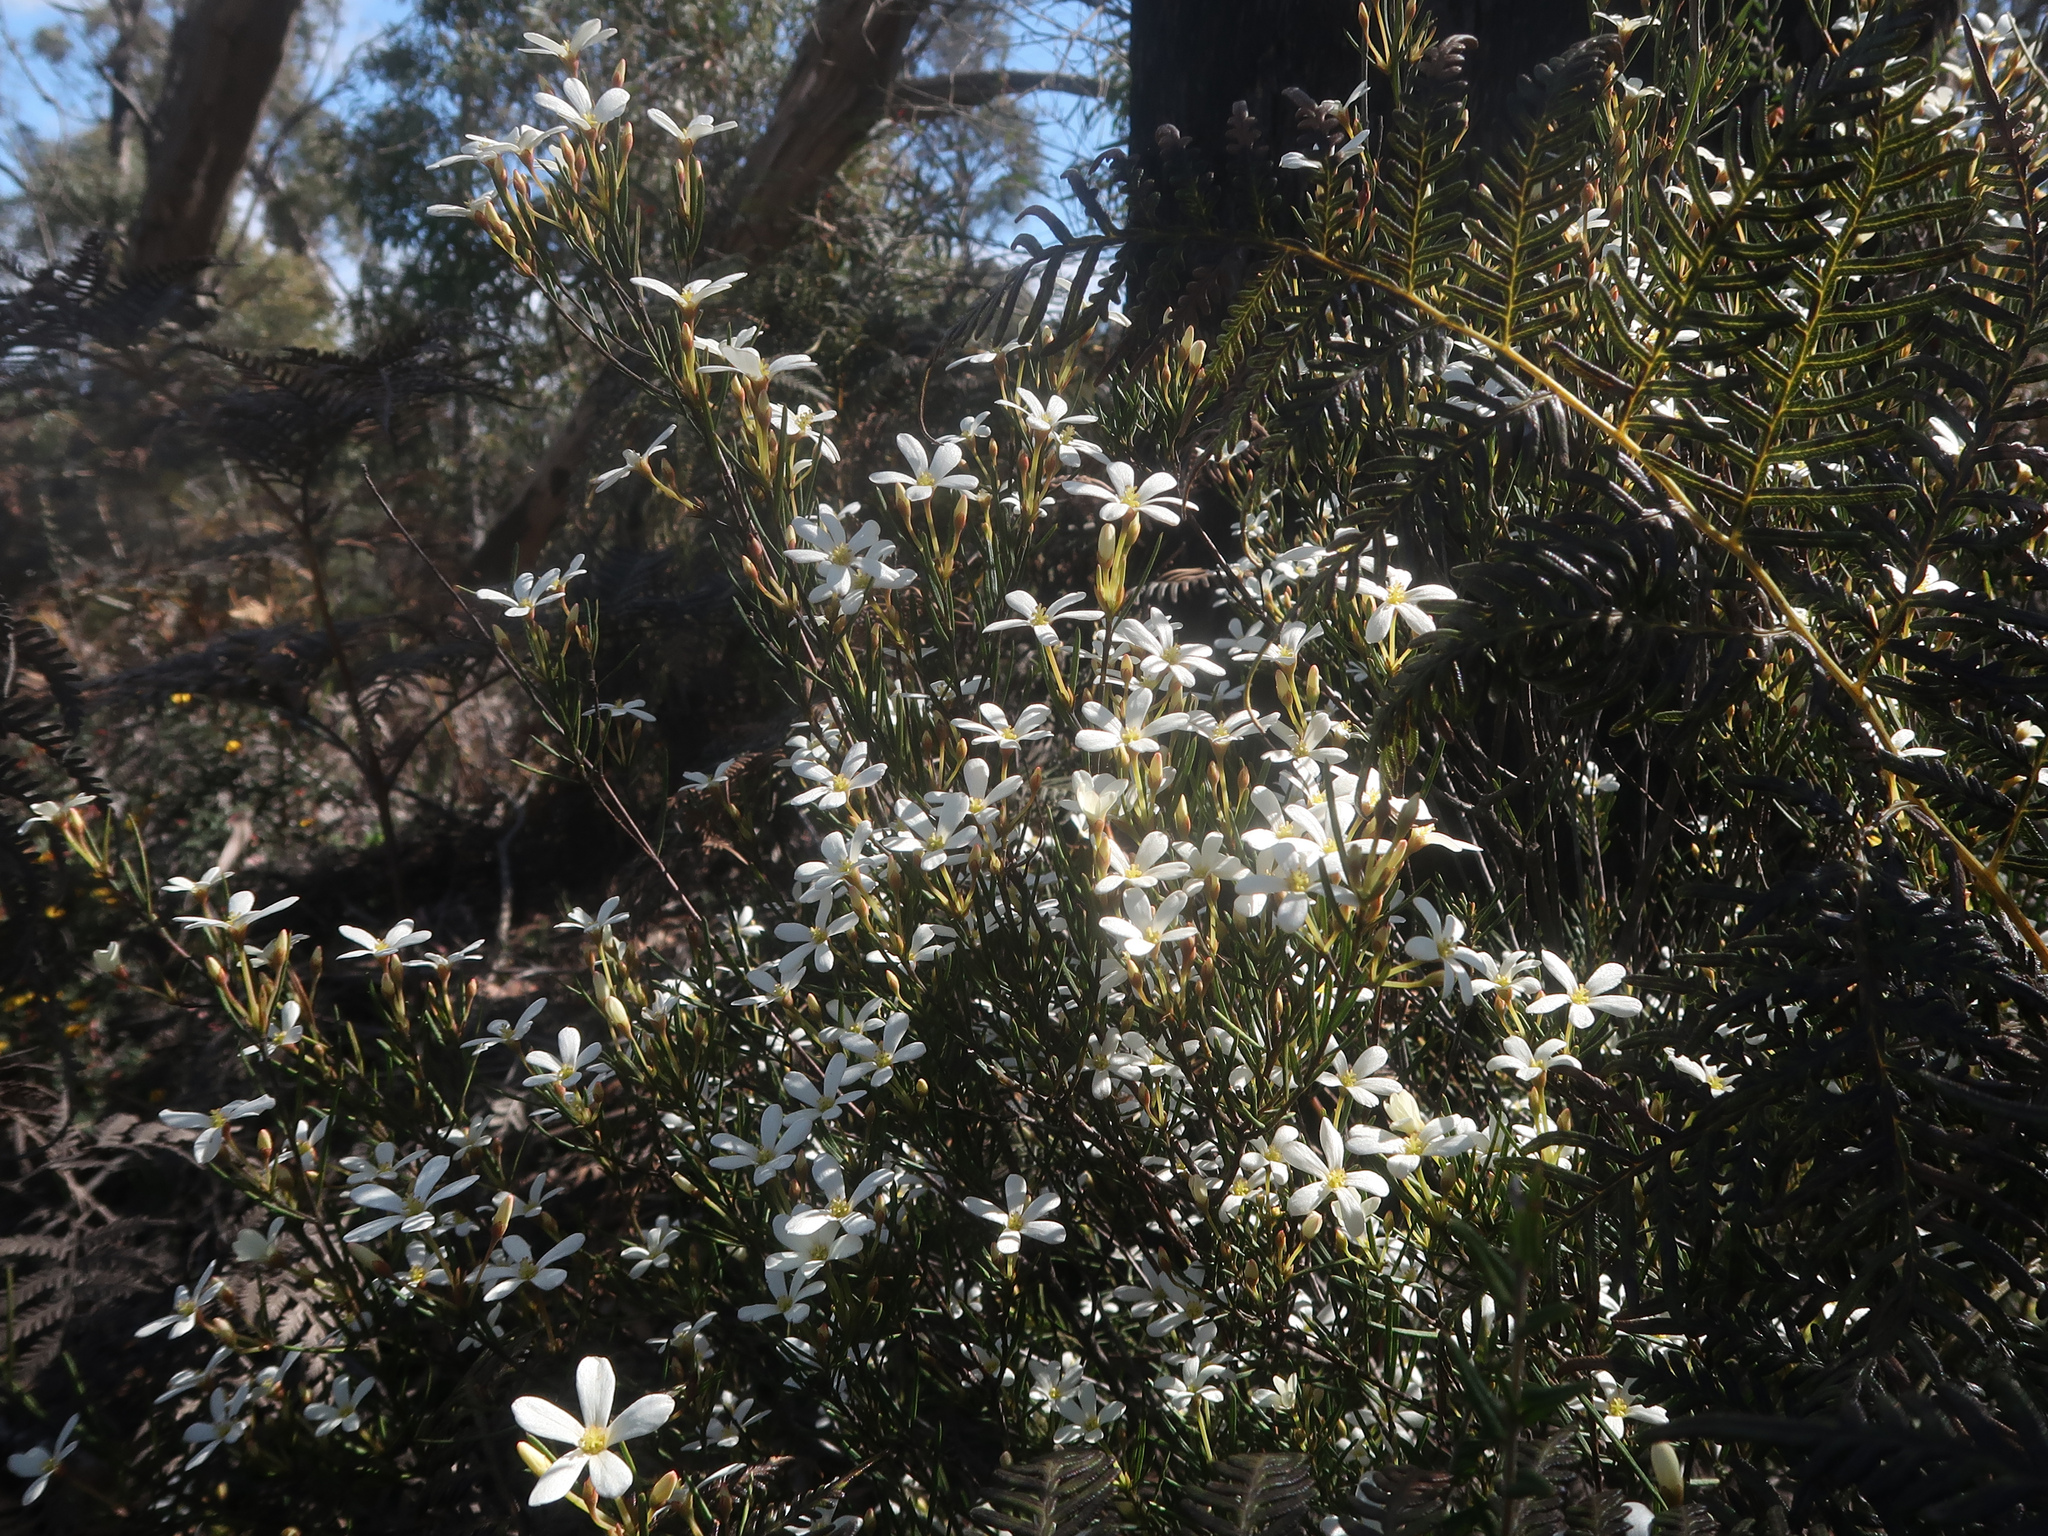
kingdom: Plantae
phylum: Tracheophyta
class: Magnoliopsida
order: Malpighiales
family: Euphorbiaceae
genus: Ricinocarpos
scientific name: Ricinocarpos pinifolius
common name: Weddingbush
